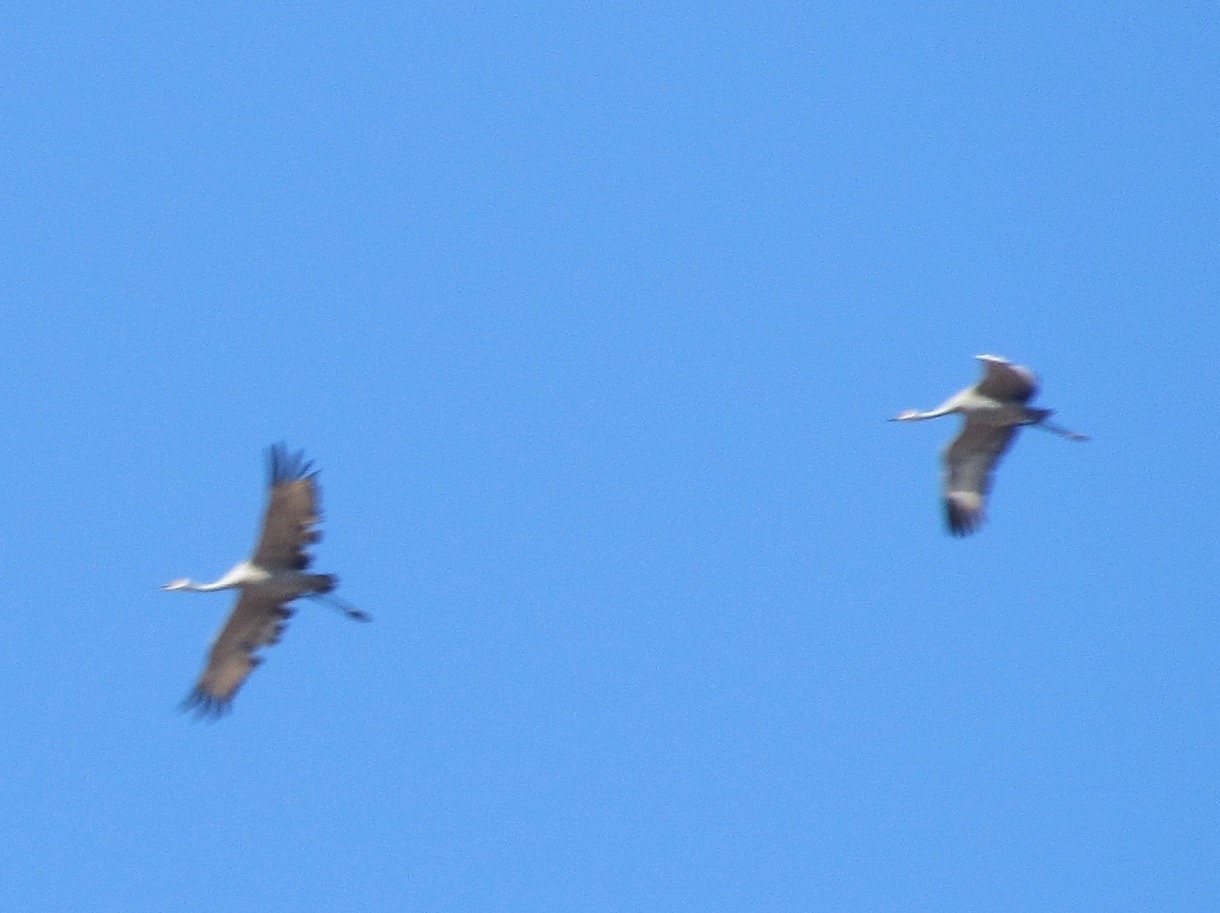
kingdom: Animalia
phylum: Chordata
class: Aves
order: Gruiformes
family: Gruidae
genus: Grus
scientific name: Grus canadensis
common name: Sandhill crane
